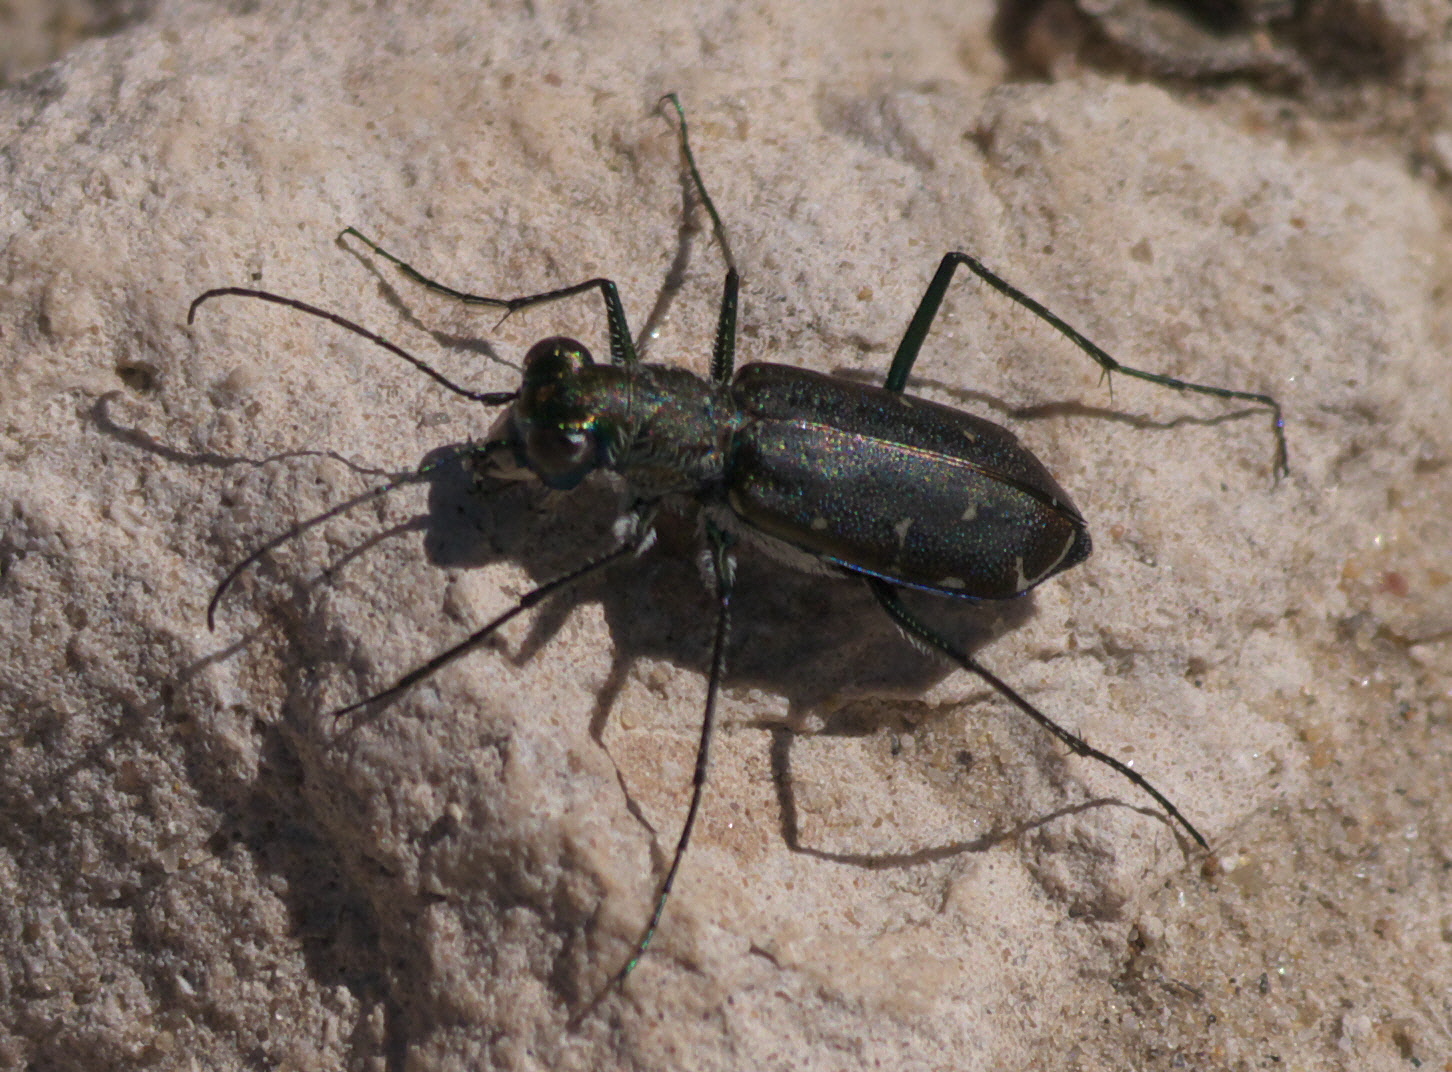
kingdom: Animalia
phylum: Arthropoda
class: Insecta
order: Coleoptera
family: Carabidae
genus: Cicindela
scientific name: Cicindela punctulata
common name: Punctured tiger beetle
